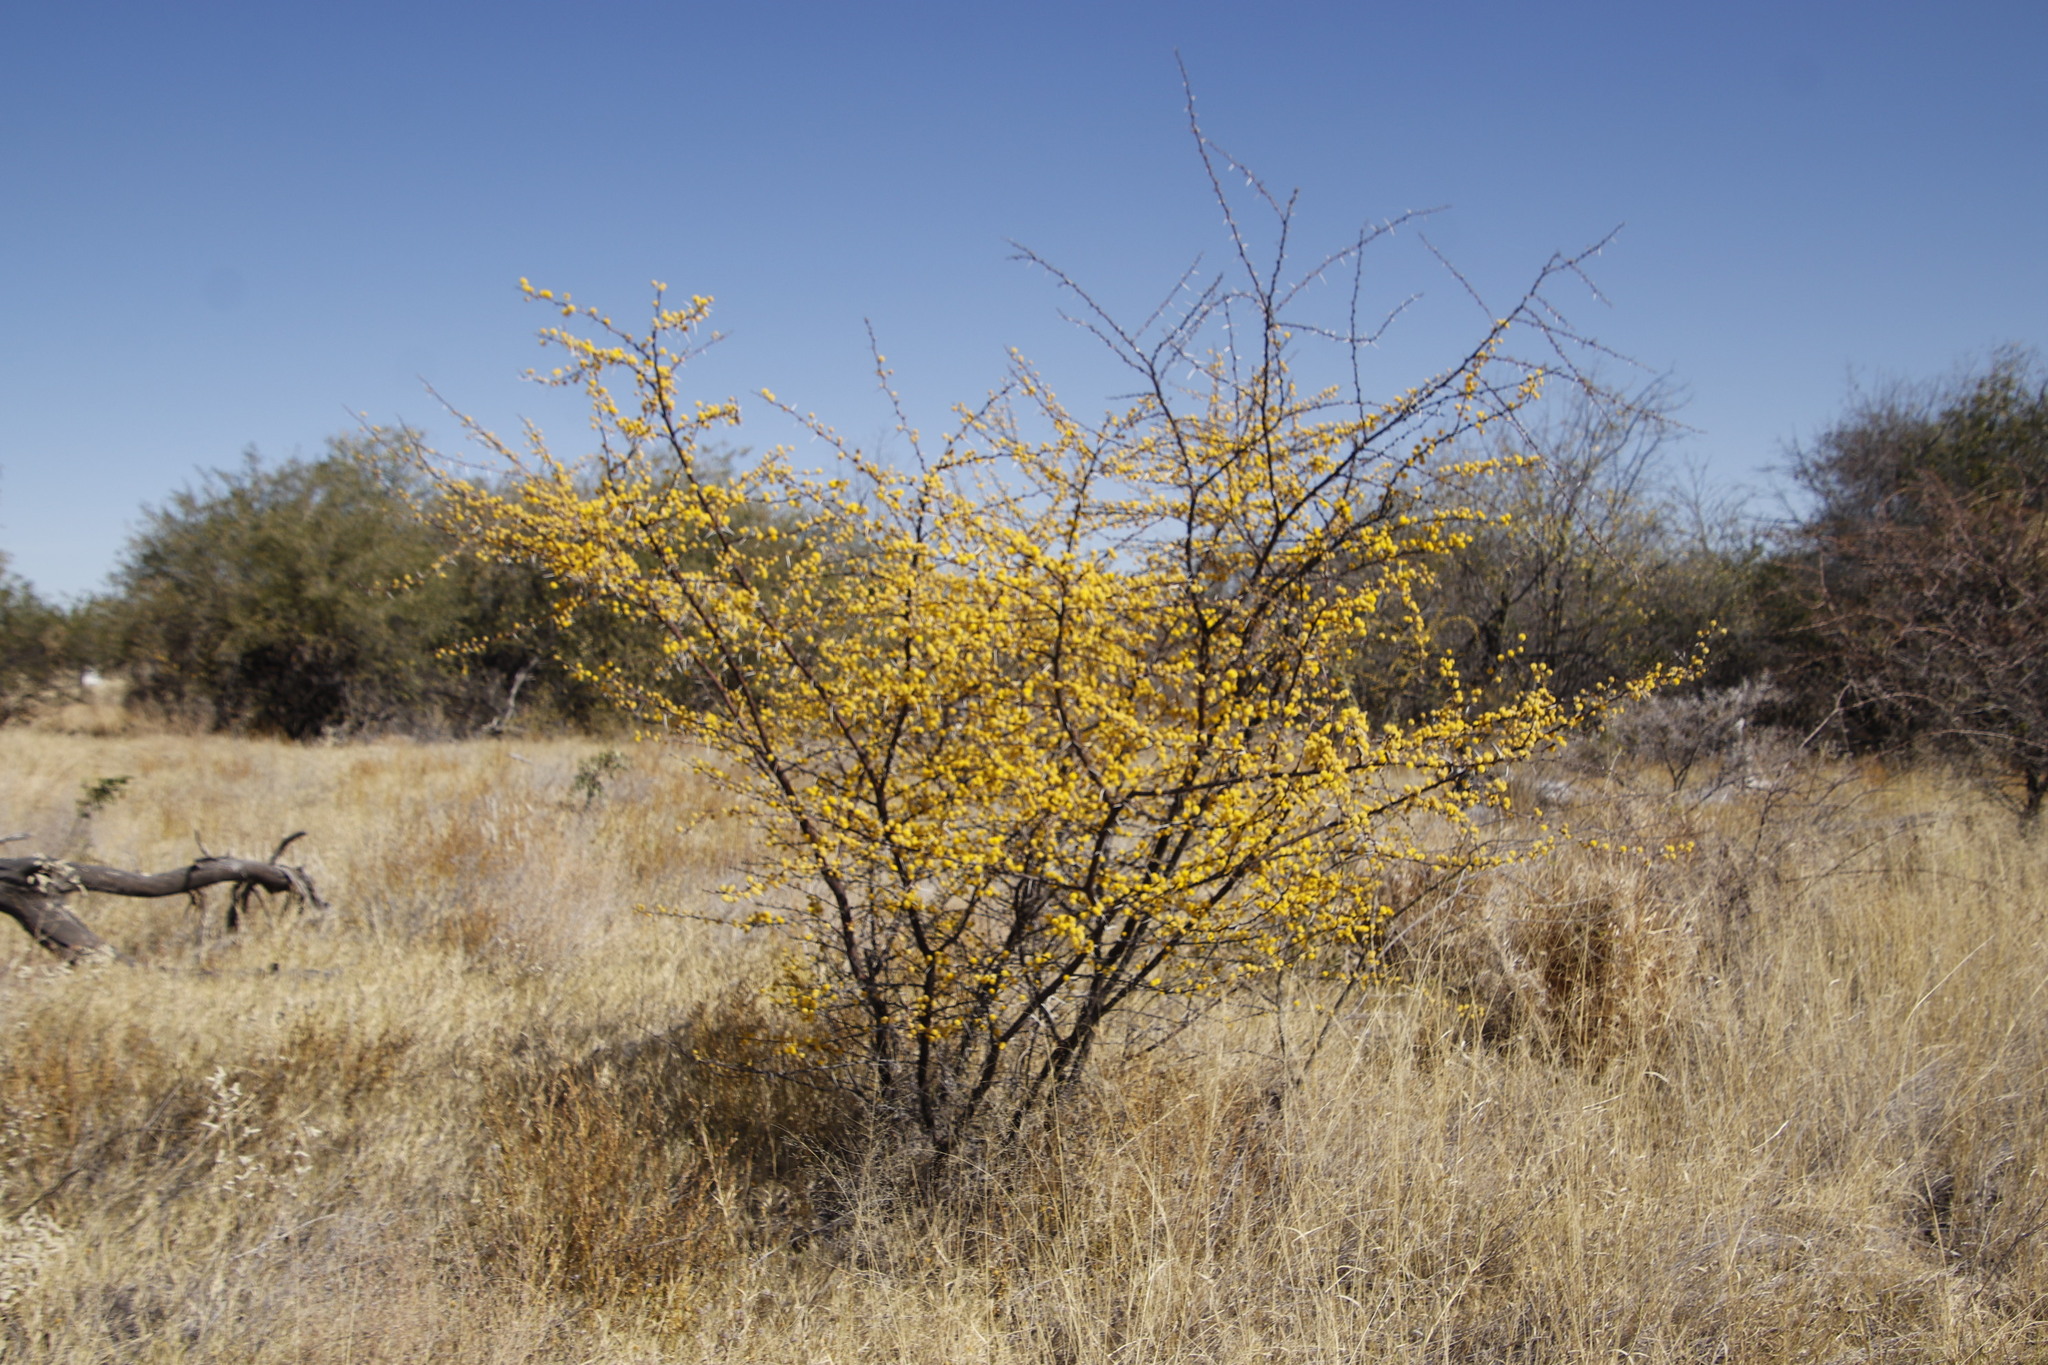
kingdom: Plantae
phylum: Tracheophyta
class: Magnoliopsida
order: Fabales
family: Fabaceae
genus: Vachellia
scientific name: Vachellia nebrownii
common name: Water acacia
